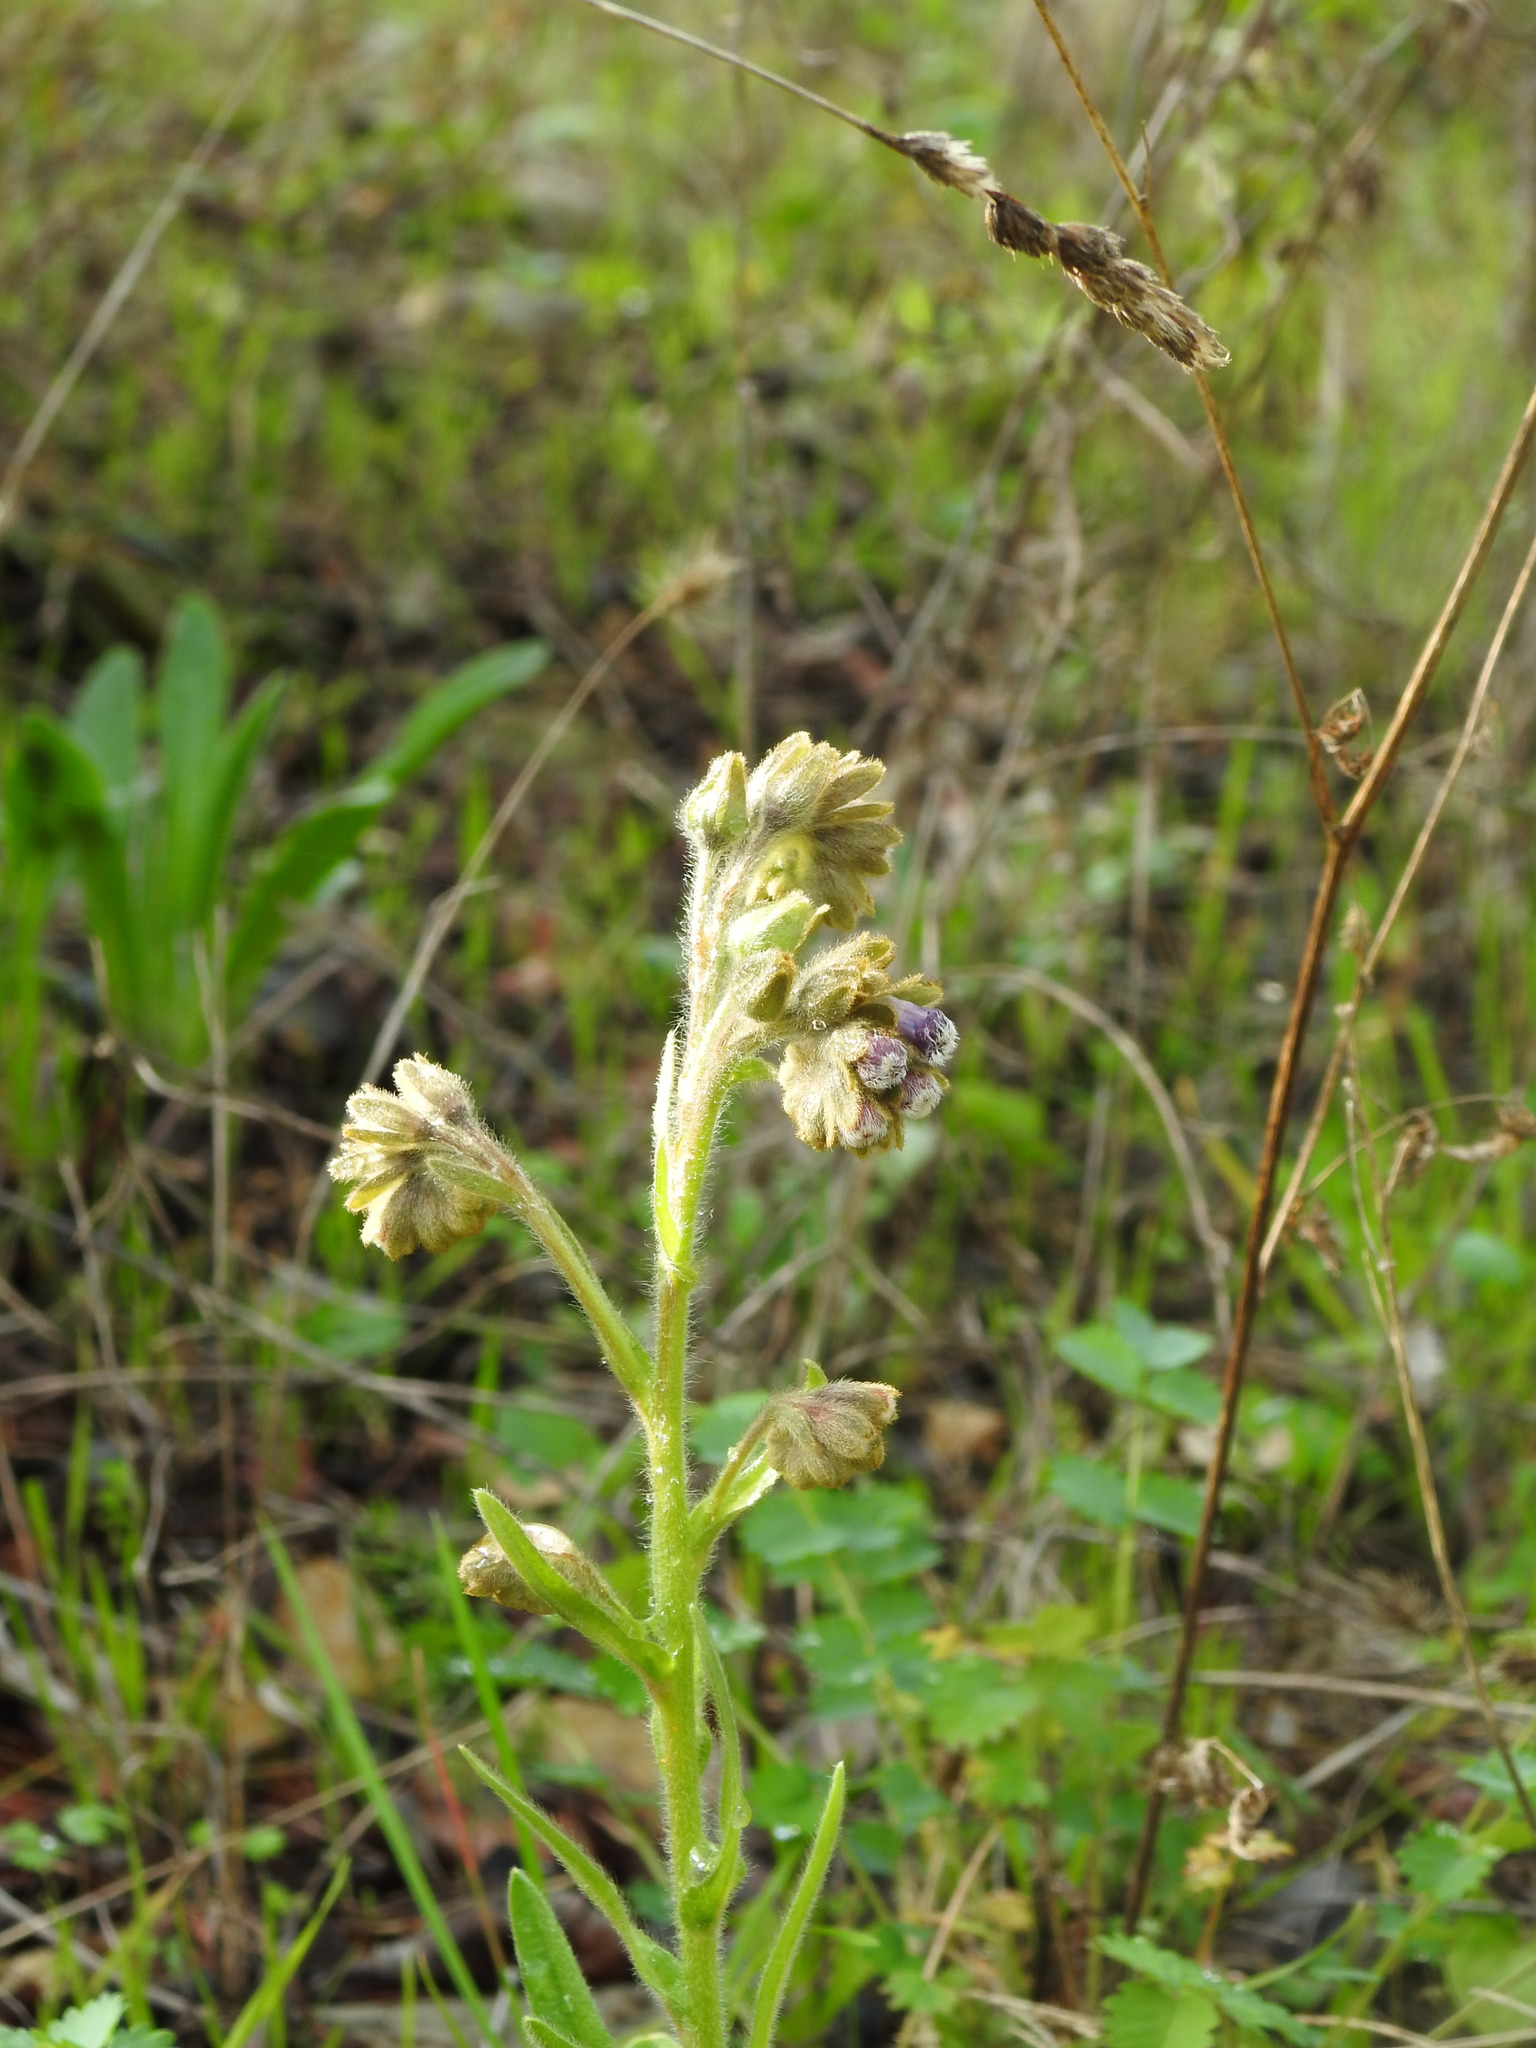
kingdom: Plantae
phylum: Tracheophyta
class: Magnoliopsida
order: Boraginales
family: Boraginaceae
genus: Cynoglossum
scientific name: Cynoglossum clandestinum
